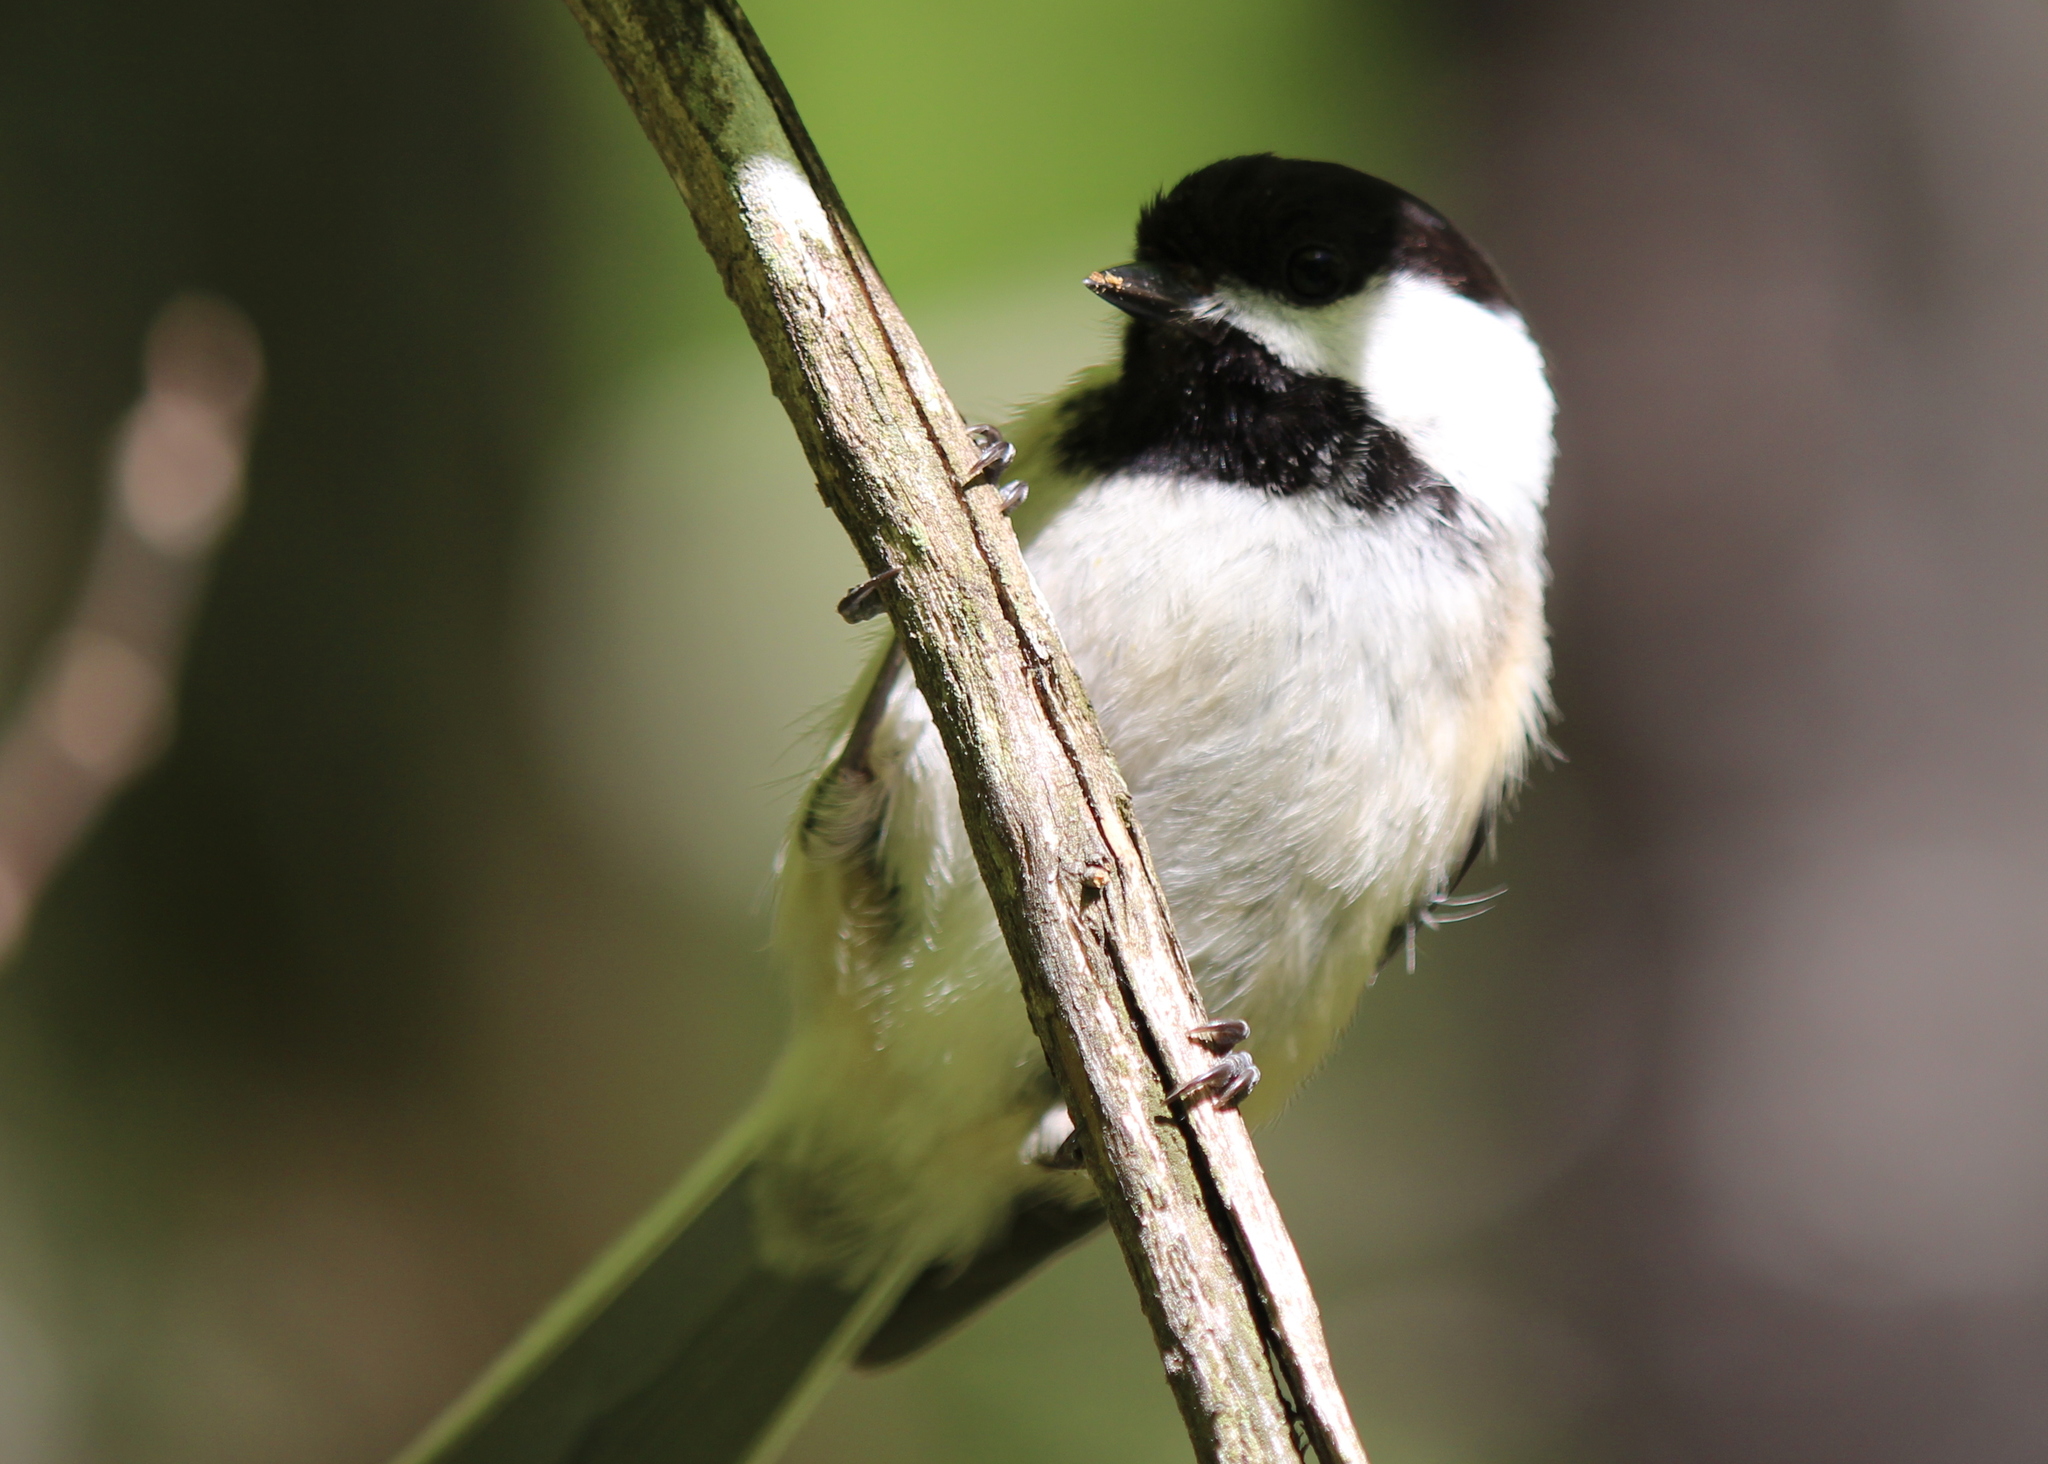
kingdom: Animalia
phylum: Chordata
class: Aves
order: Passeriformes
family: Paridae
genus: Poecile
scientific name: Poecile atricapillus
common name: Black-capped chickadee
